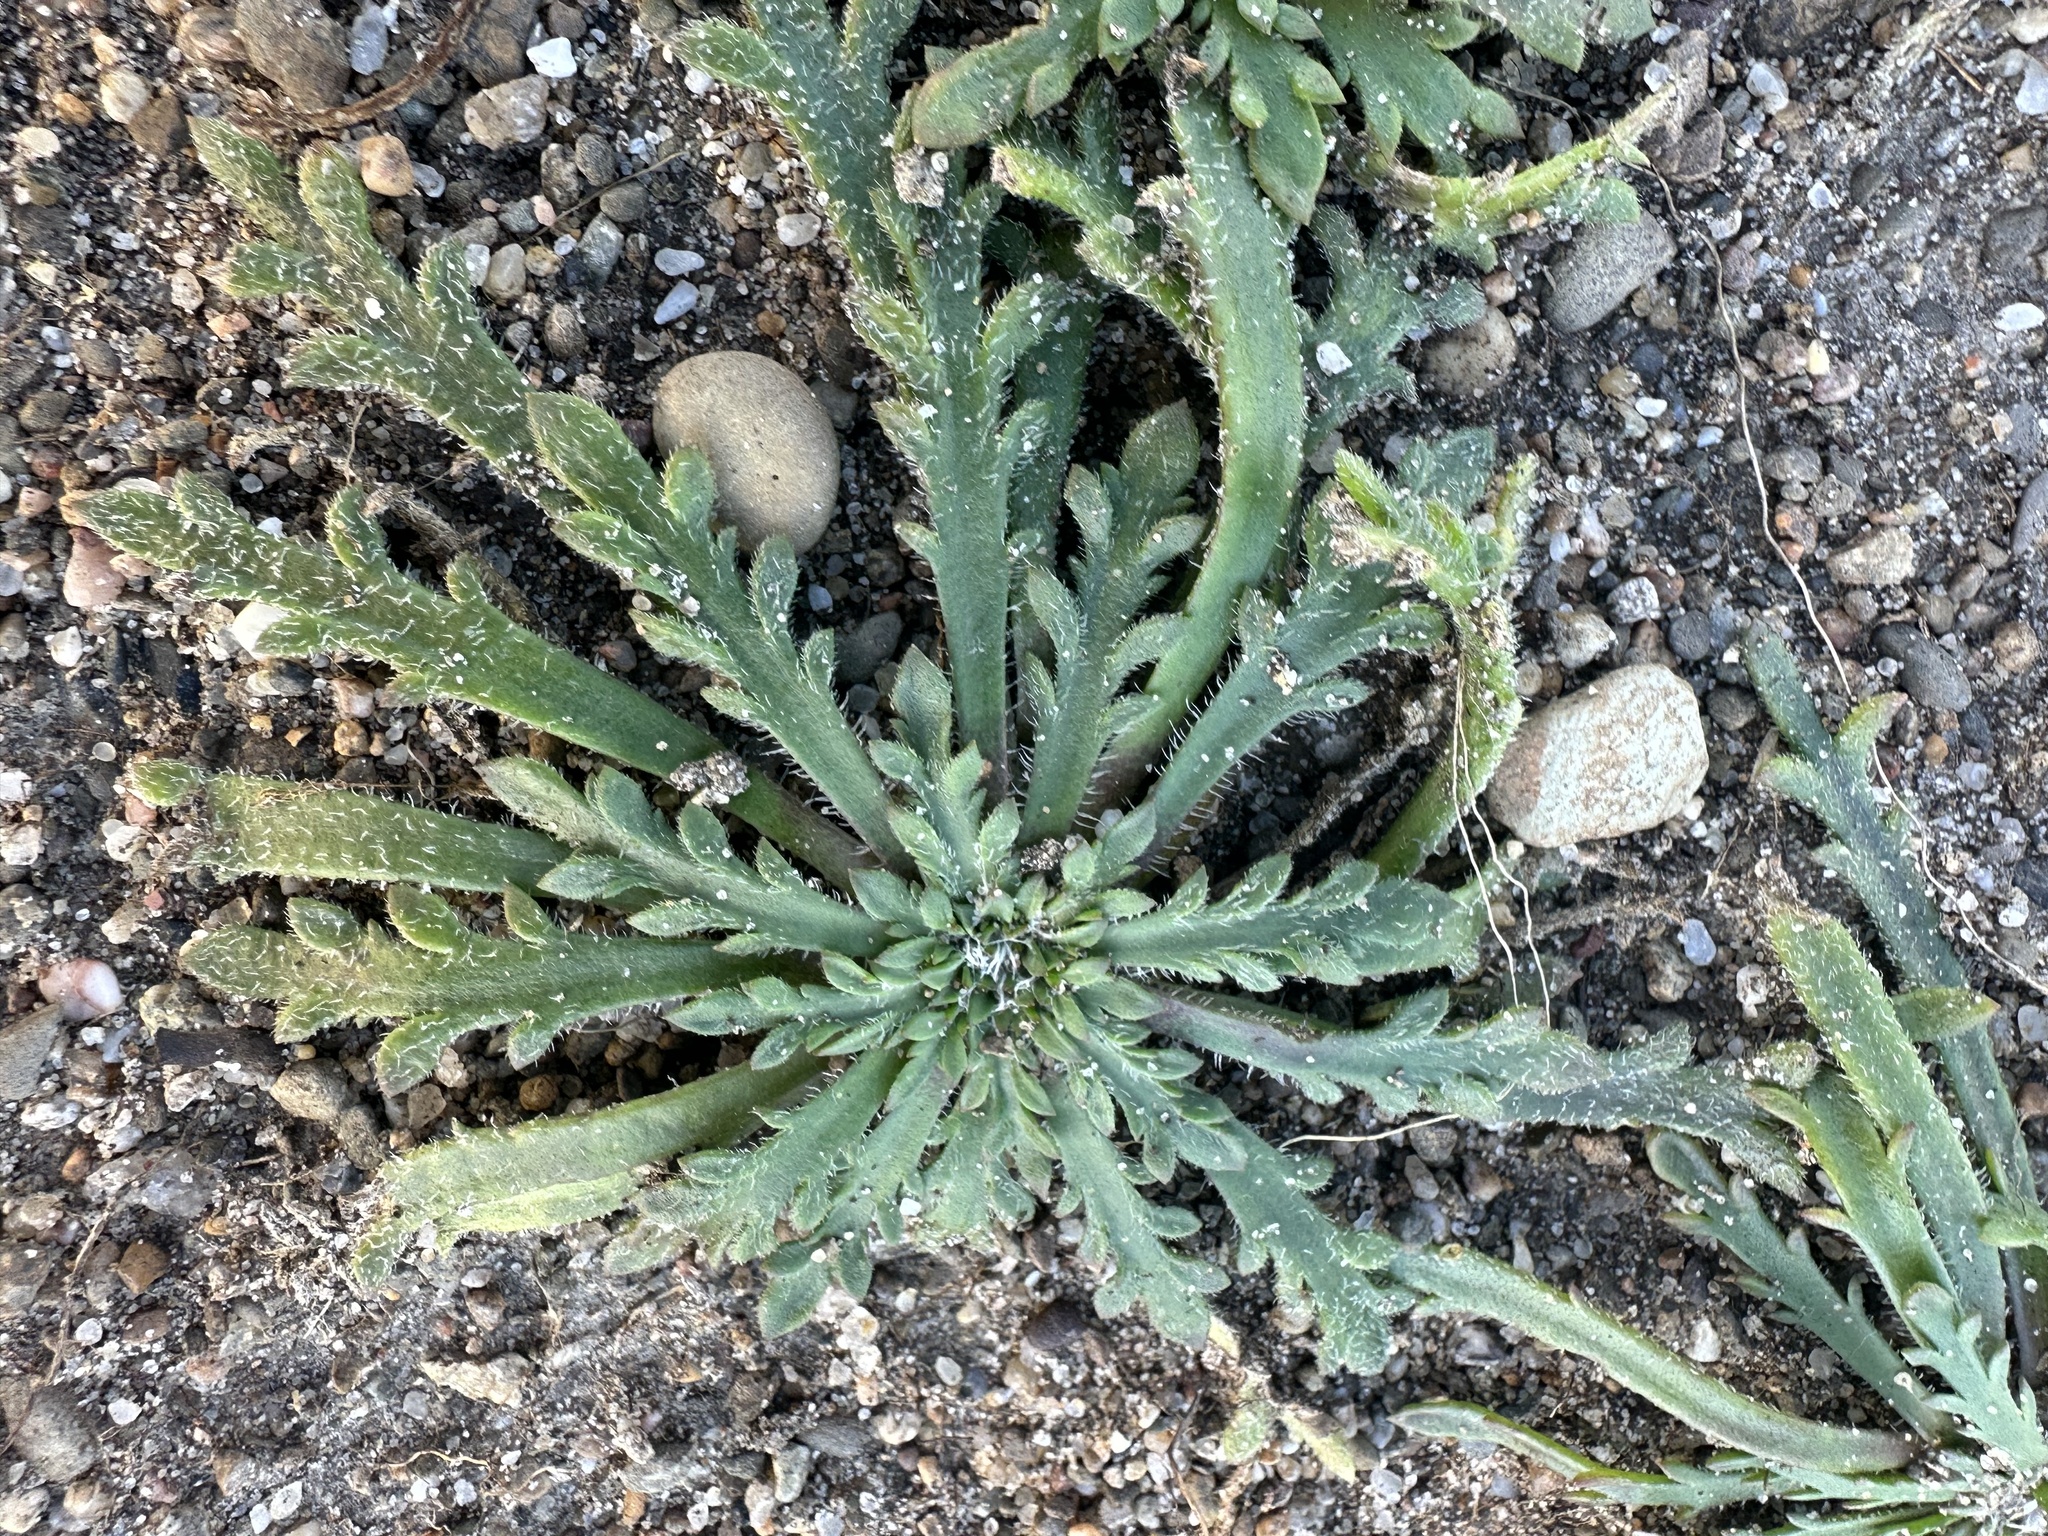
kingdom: Plantae
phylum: Tracheophyta
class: Magnoliopsida
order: Lamiales
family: Plantaginaceae
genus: Plantago
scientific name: Plantago coronopus
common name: Buck's-horn plantain
